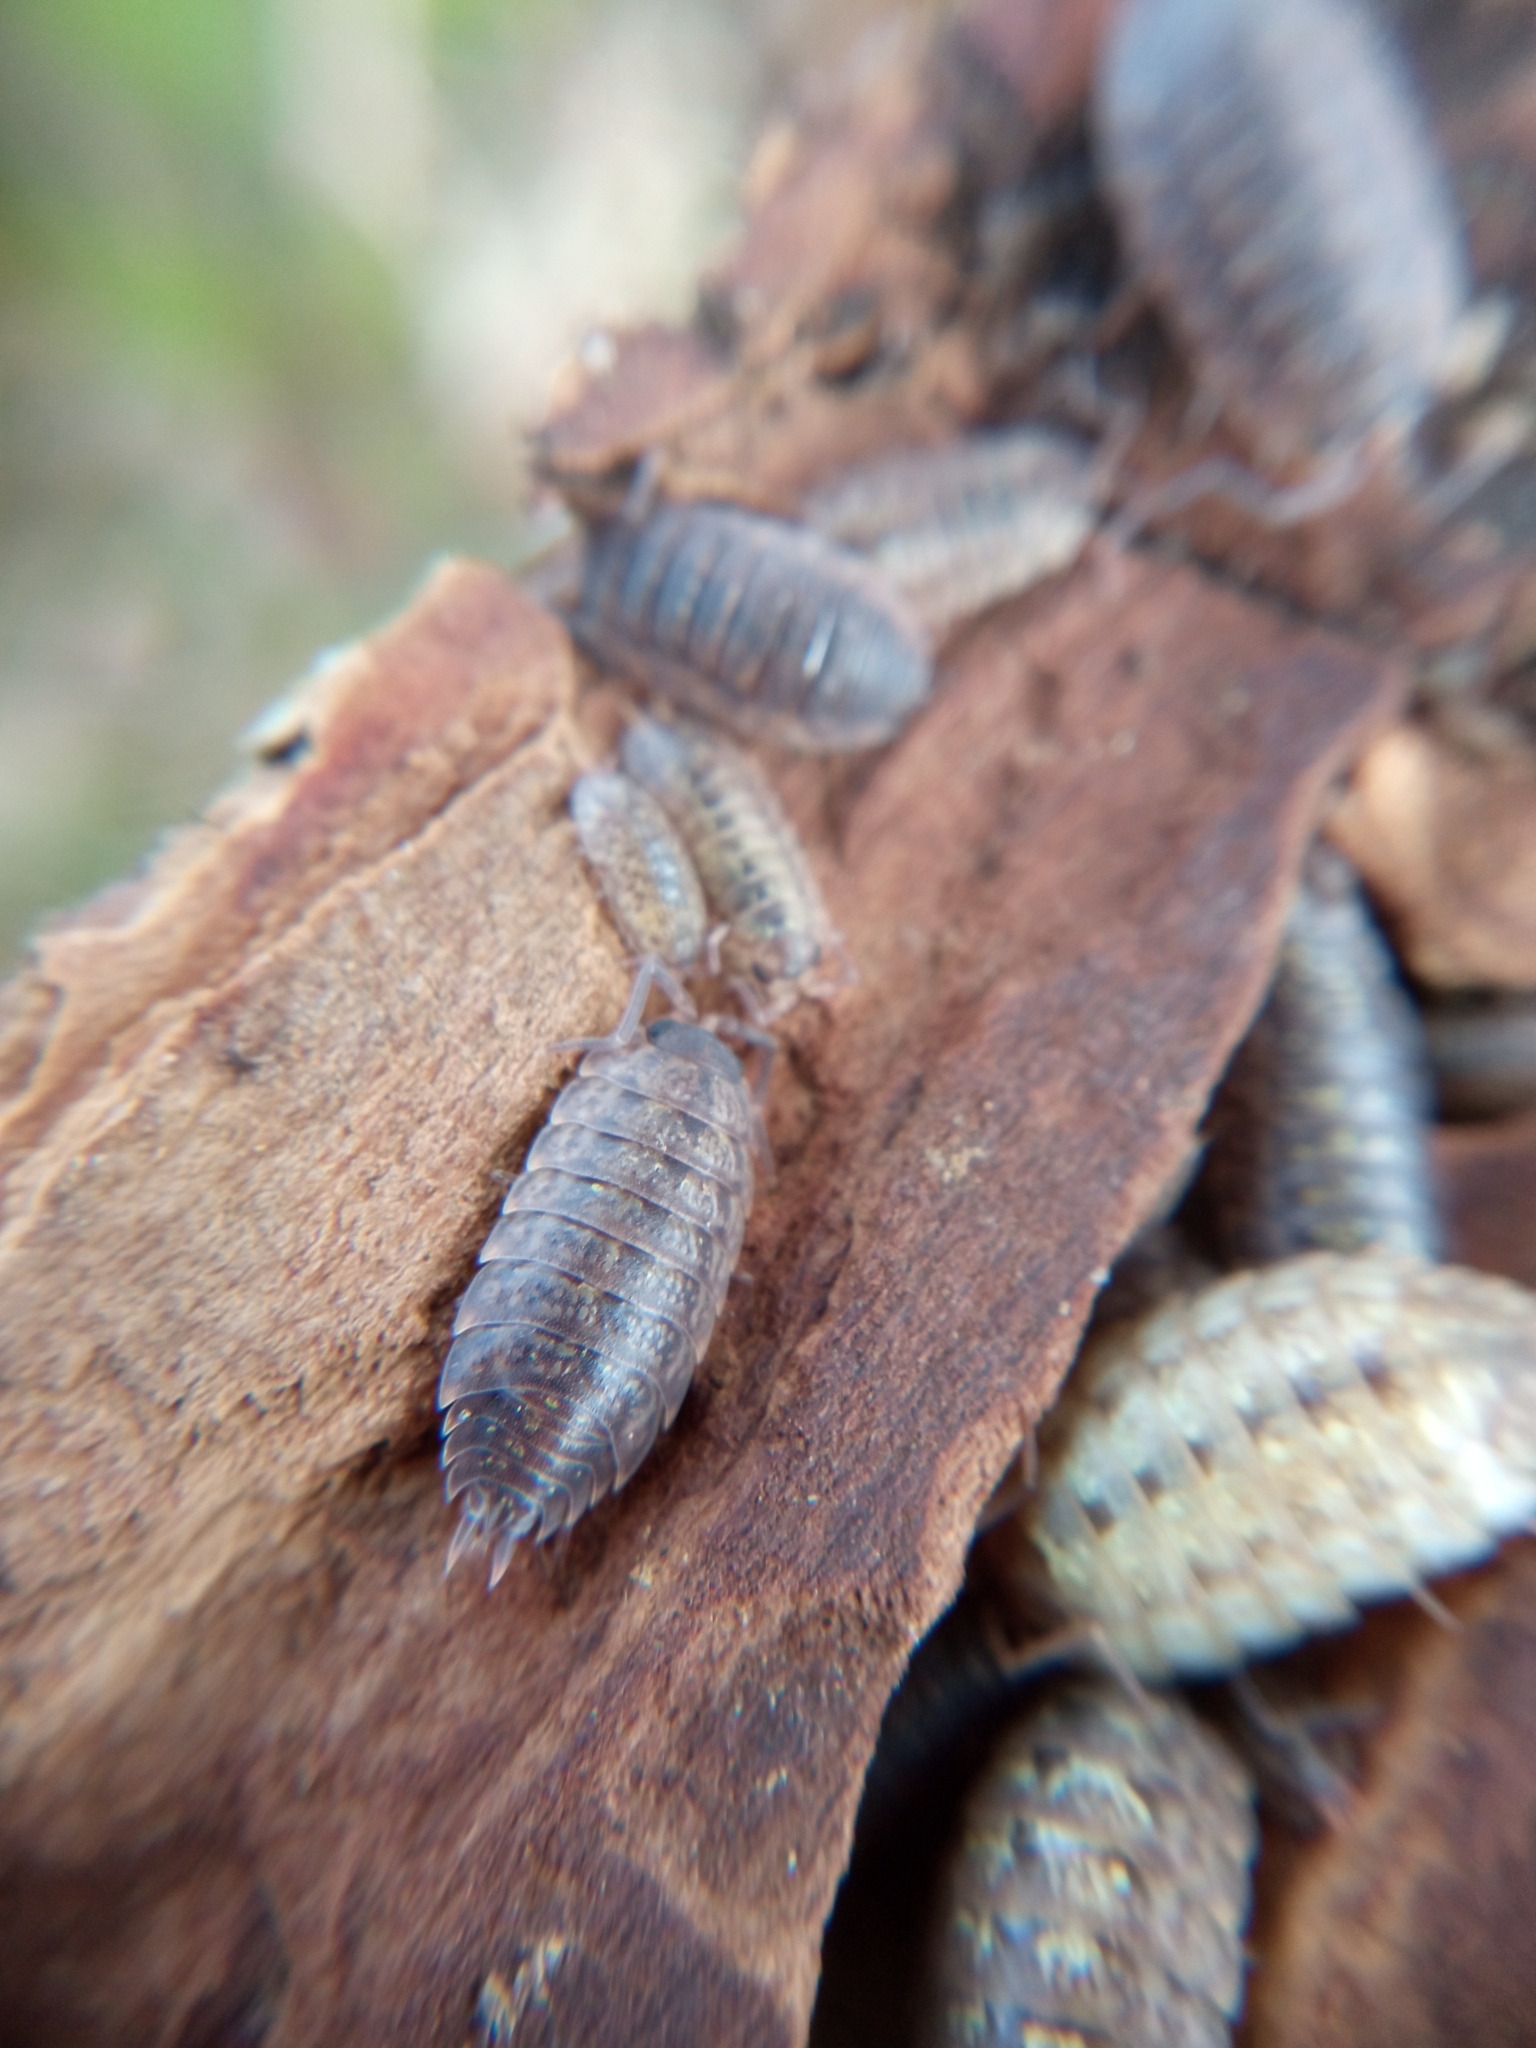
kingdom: Animalia
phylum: Arthropoda
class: Malacostraca
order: Isopoda
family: Porcellionidae
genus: Porcellio
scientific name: Porcellio monticola
